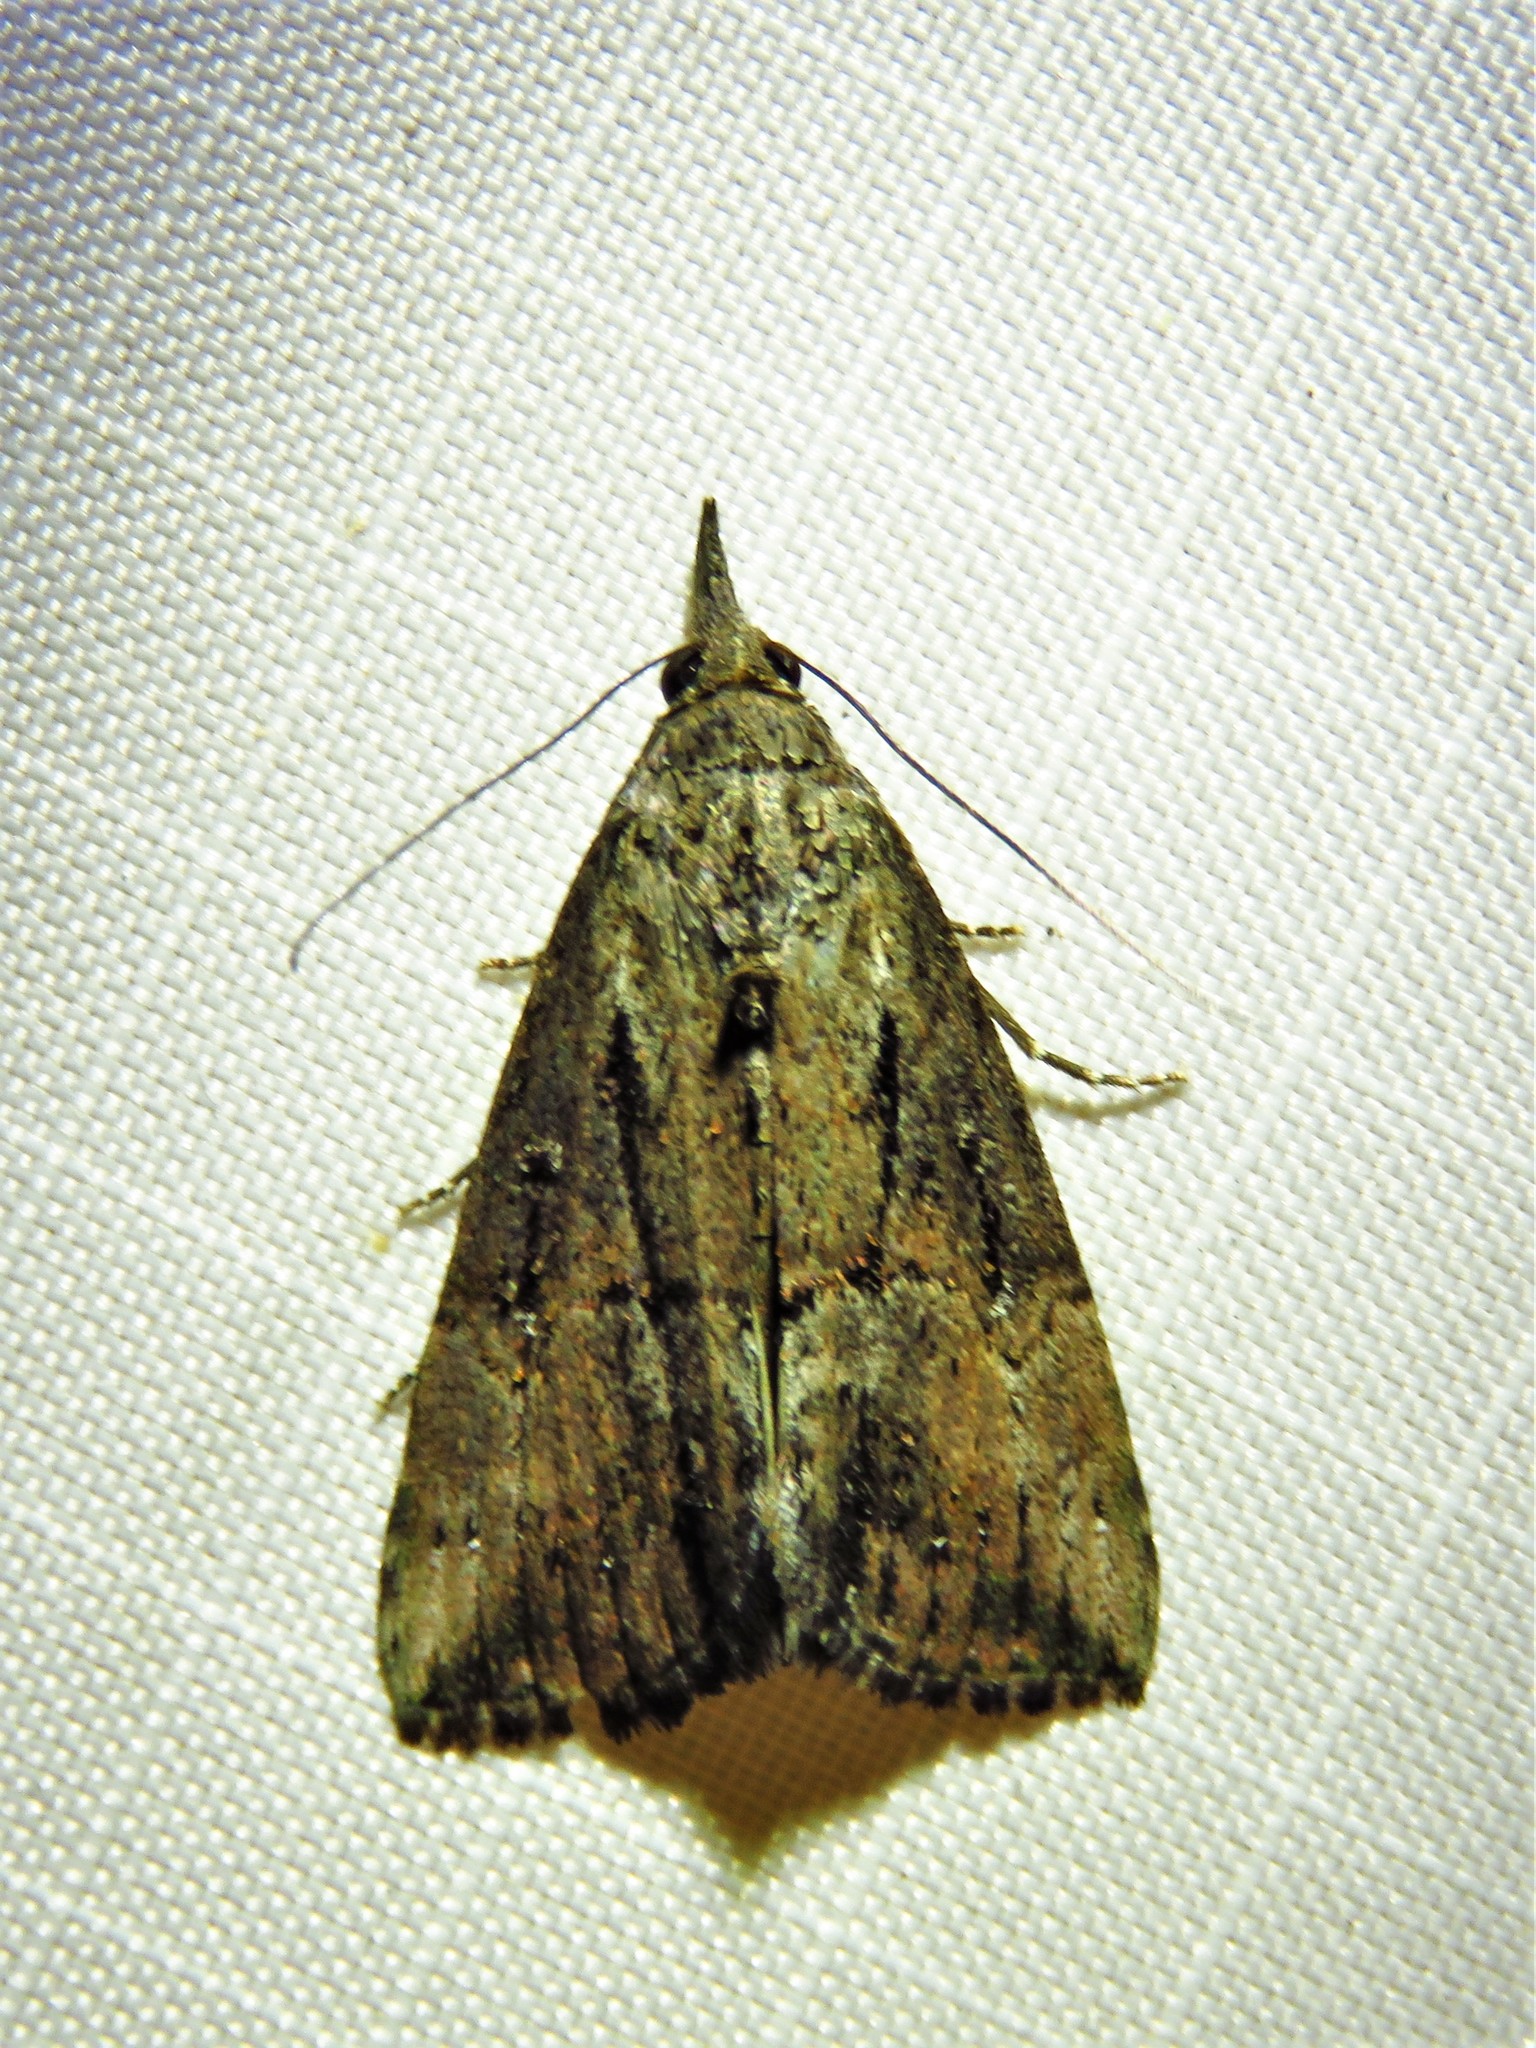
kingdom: Animalia
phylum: Arthropoda
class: Insecta
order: Lepidoptera
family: Erebidae
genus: Hypena
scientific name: Hypena scabra
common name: Green cloverworm
